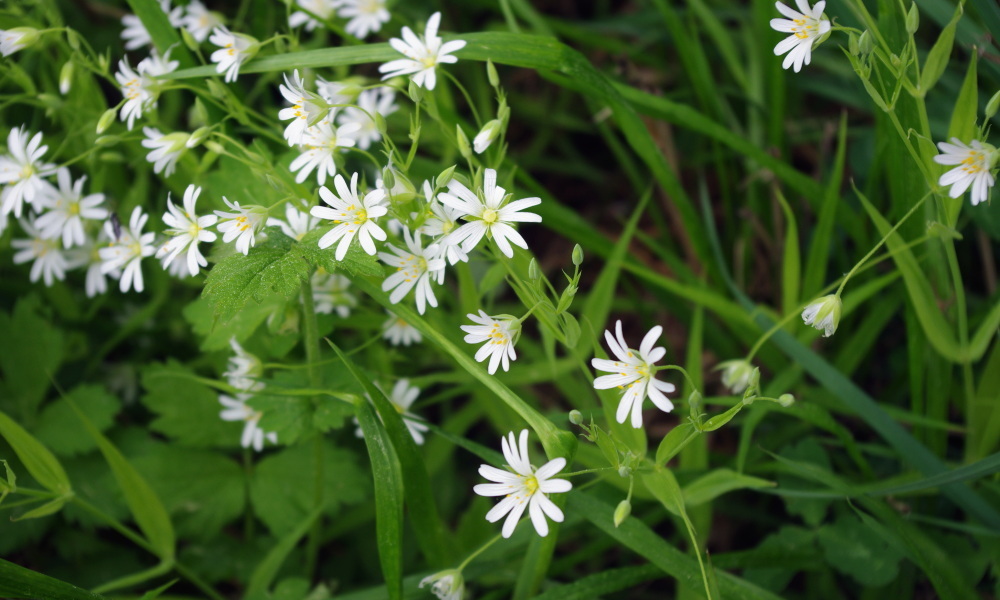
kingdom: Plantae
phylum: Tracheophyta
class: Magnoliopsida
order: Caryophyllales
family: Caryophyllaceae
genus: Rabelera
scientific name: Rabelera holostea
